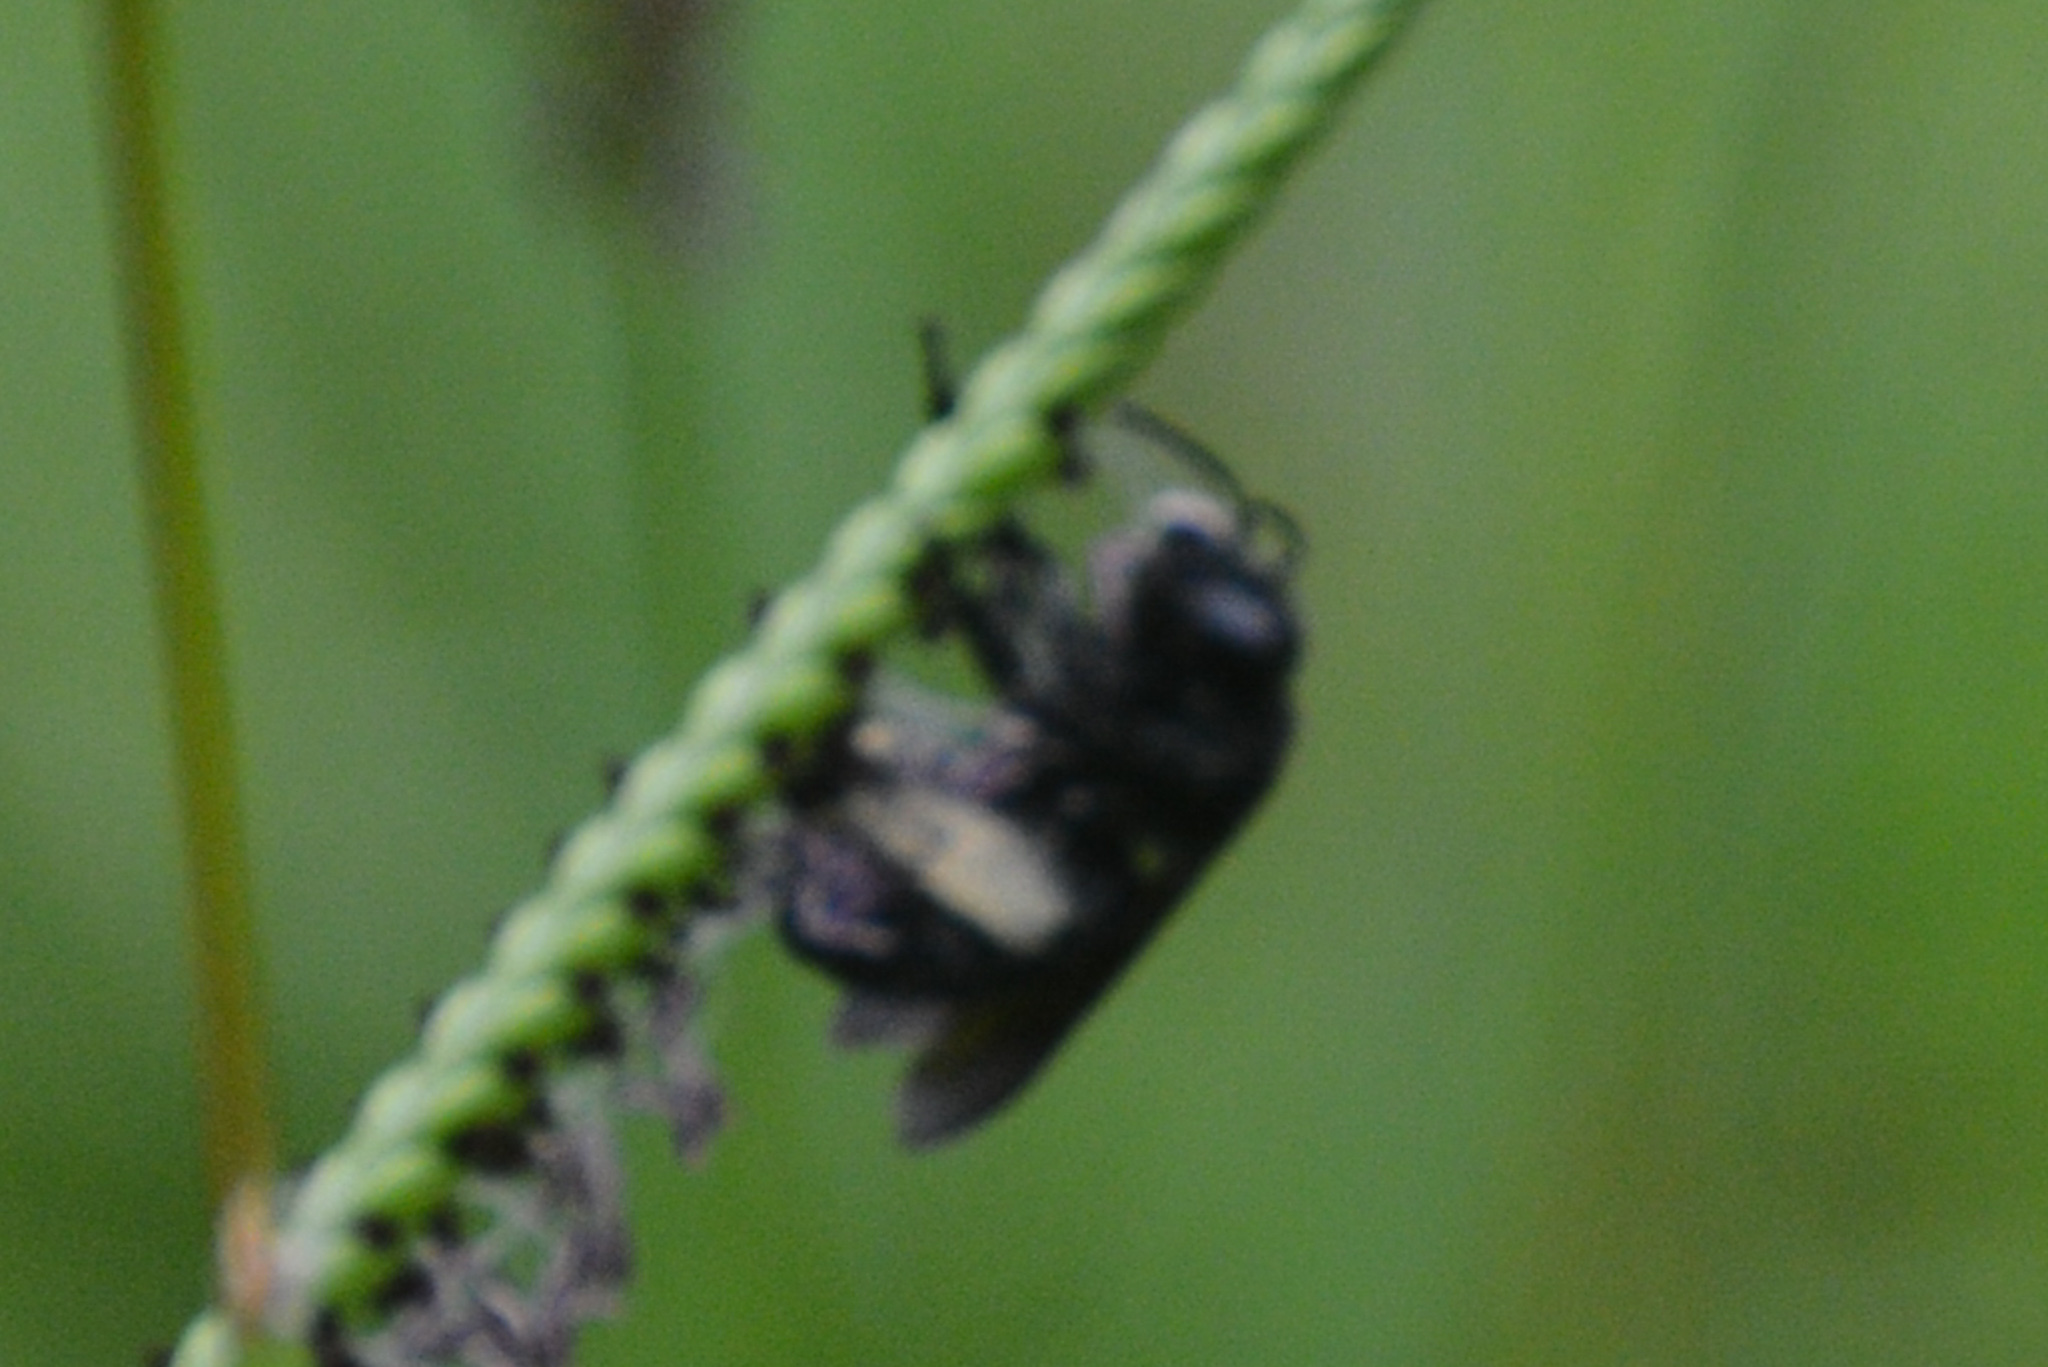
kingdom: Animalia
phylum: Arthropoda
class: Insecta
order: Hymenoptera
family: Apidae
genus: Melissodes
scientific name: Melissodes bimaculatus
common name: Two-spotted long-horned bee
